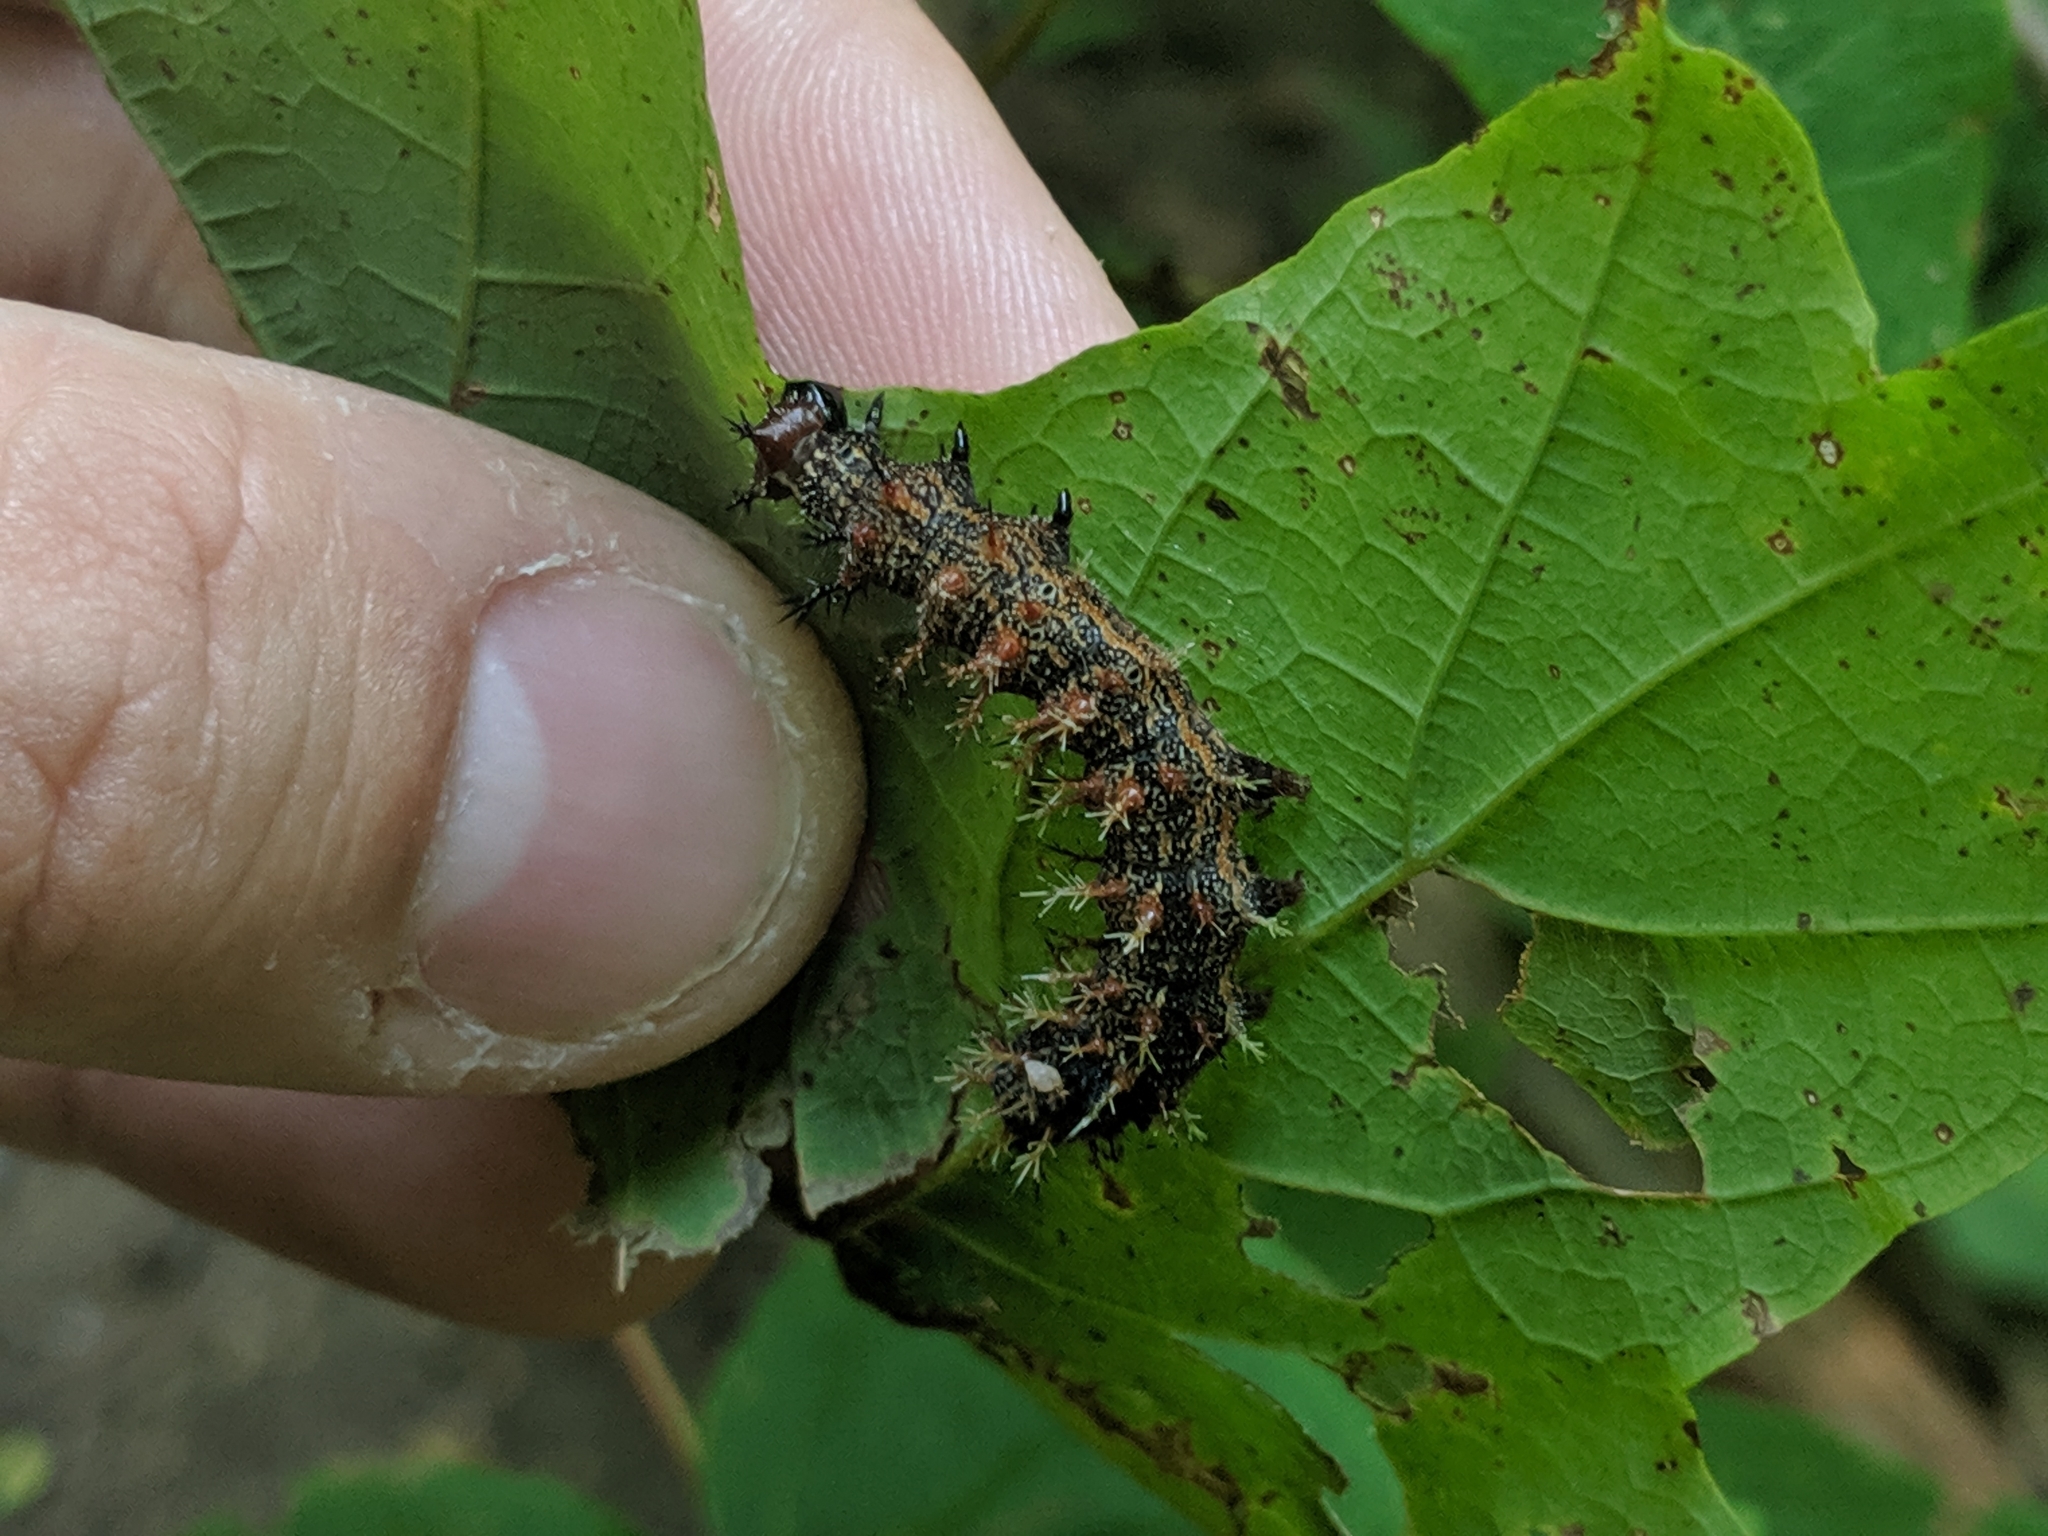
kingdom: Animalia
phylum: Arthropoda
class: Insecta
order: Lepidoptera
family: Nymphalidae
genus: Polygonia
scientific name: Polygonia interrogationis
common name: Question mark
